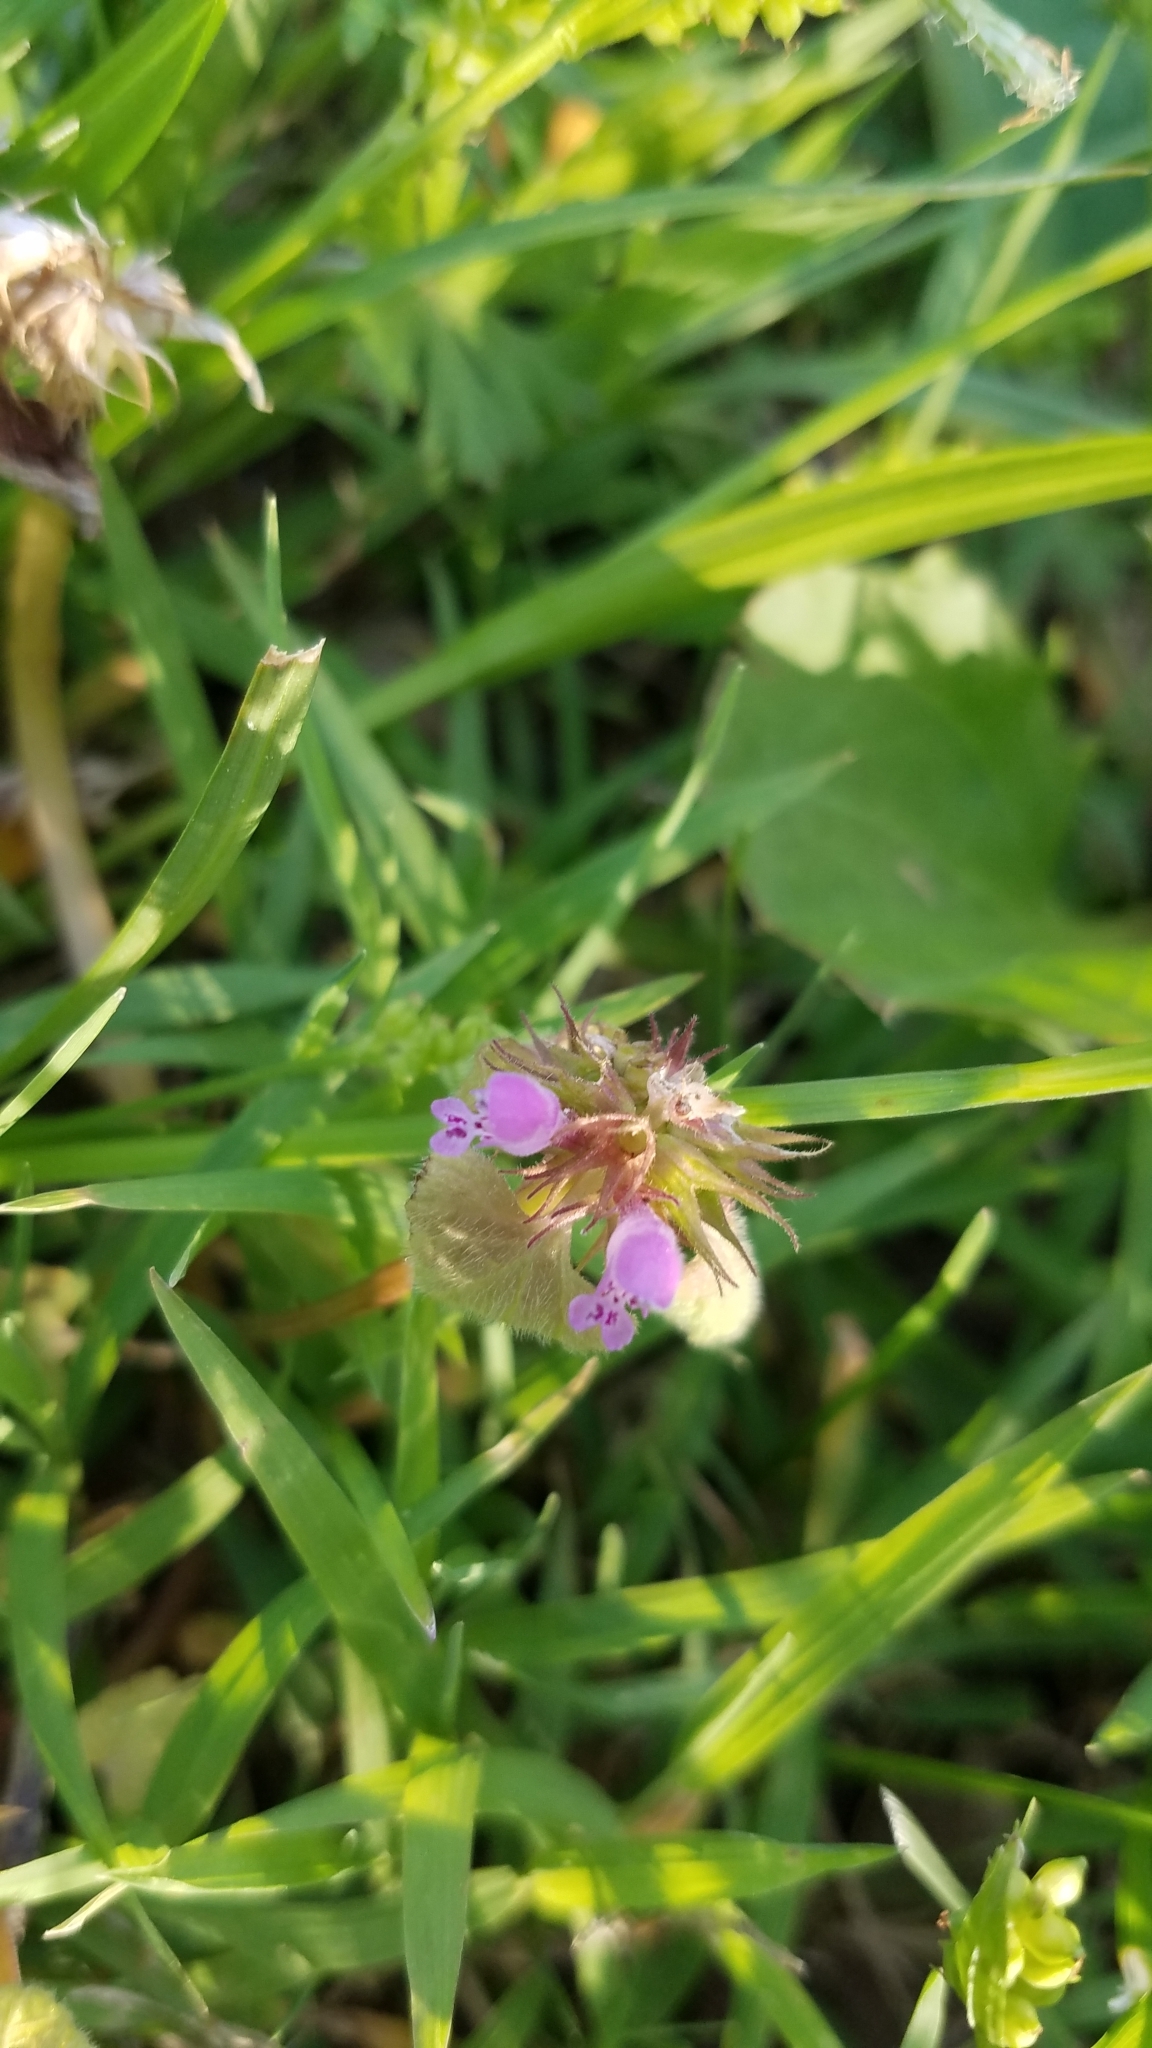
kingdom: Plantae
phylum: Tracheophyta
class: Magnoliopsida
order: Lamiales
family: Lamiaceae
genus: Lamium
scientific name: Lamium purpureum
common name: Red dead-nettle
